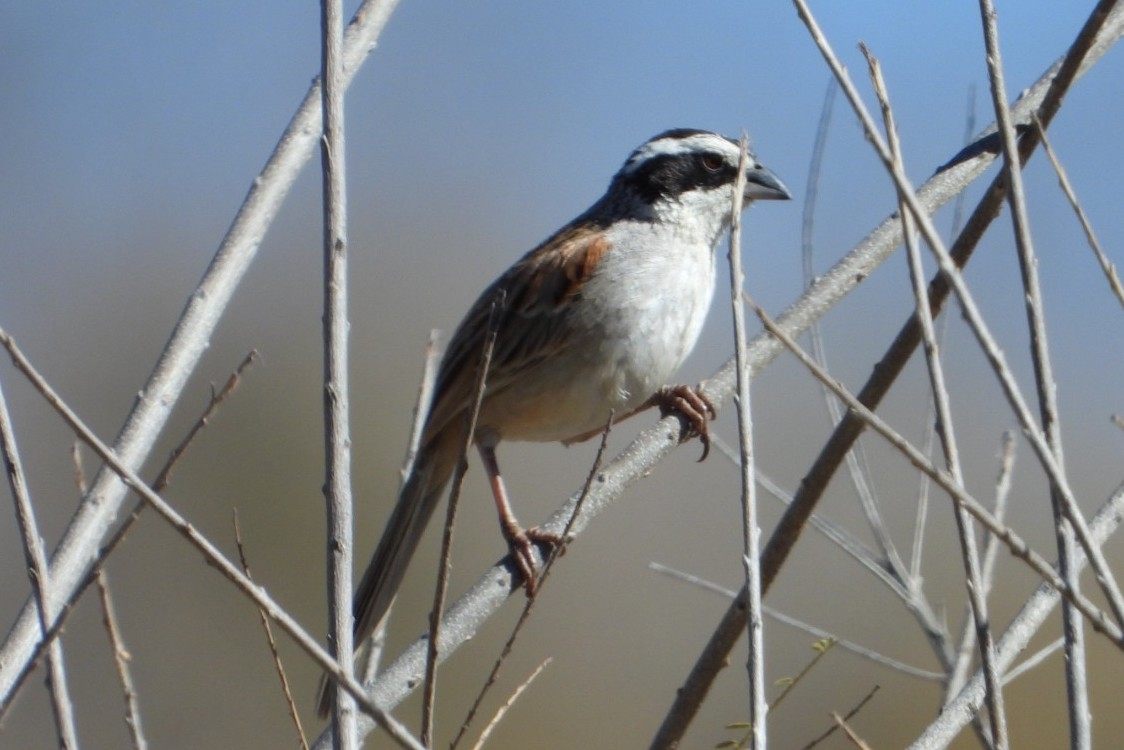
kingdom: Animalia
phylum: Chordata
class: Aves
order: Passeriformes
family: Passerellidae
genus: Peucaea
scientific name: Peucaea ruficauda
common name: Stripe-headed sparrow
